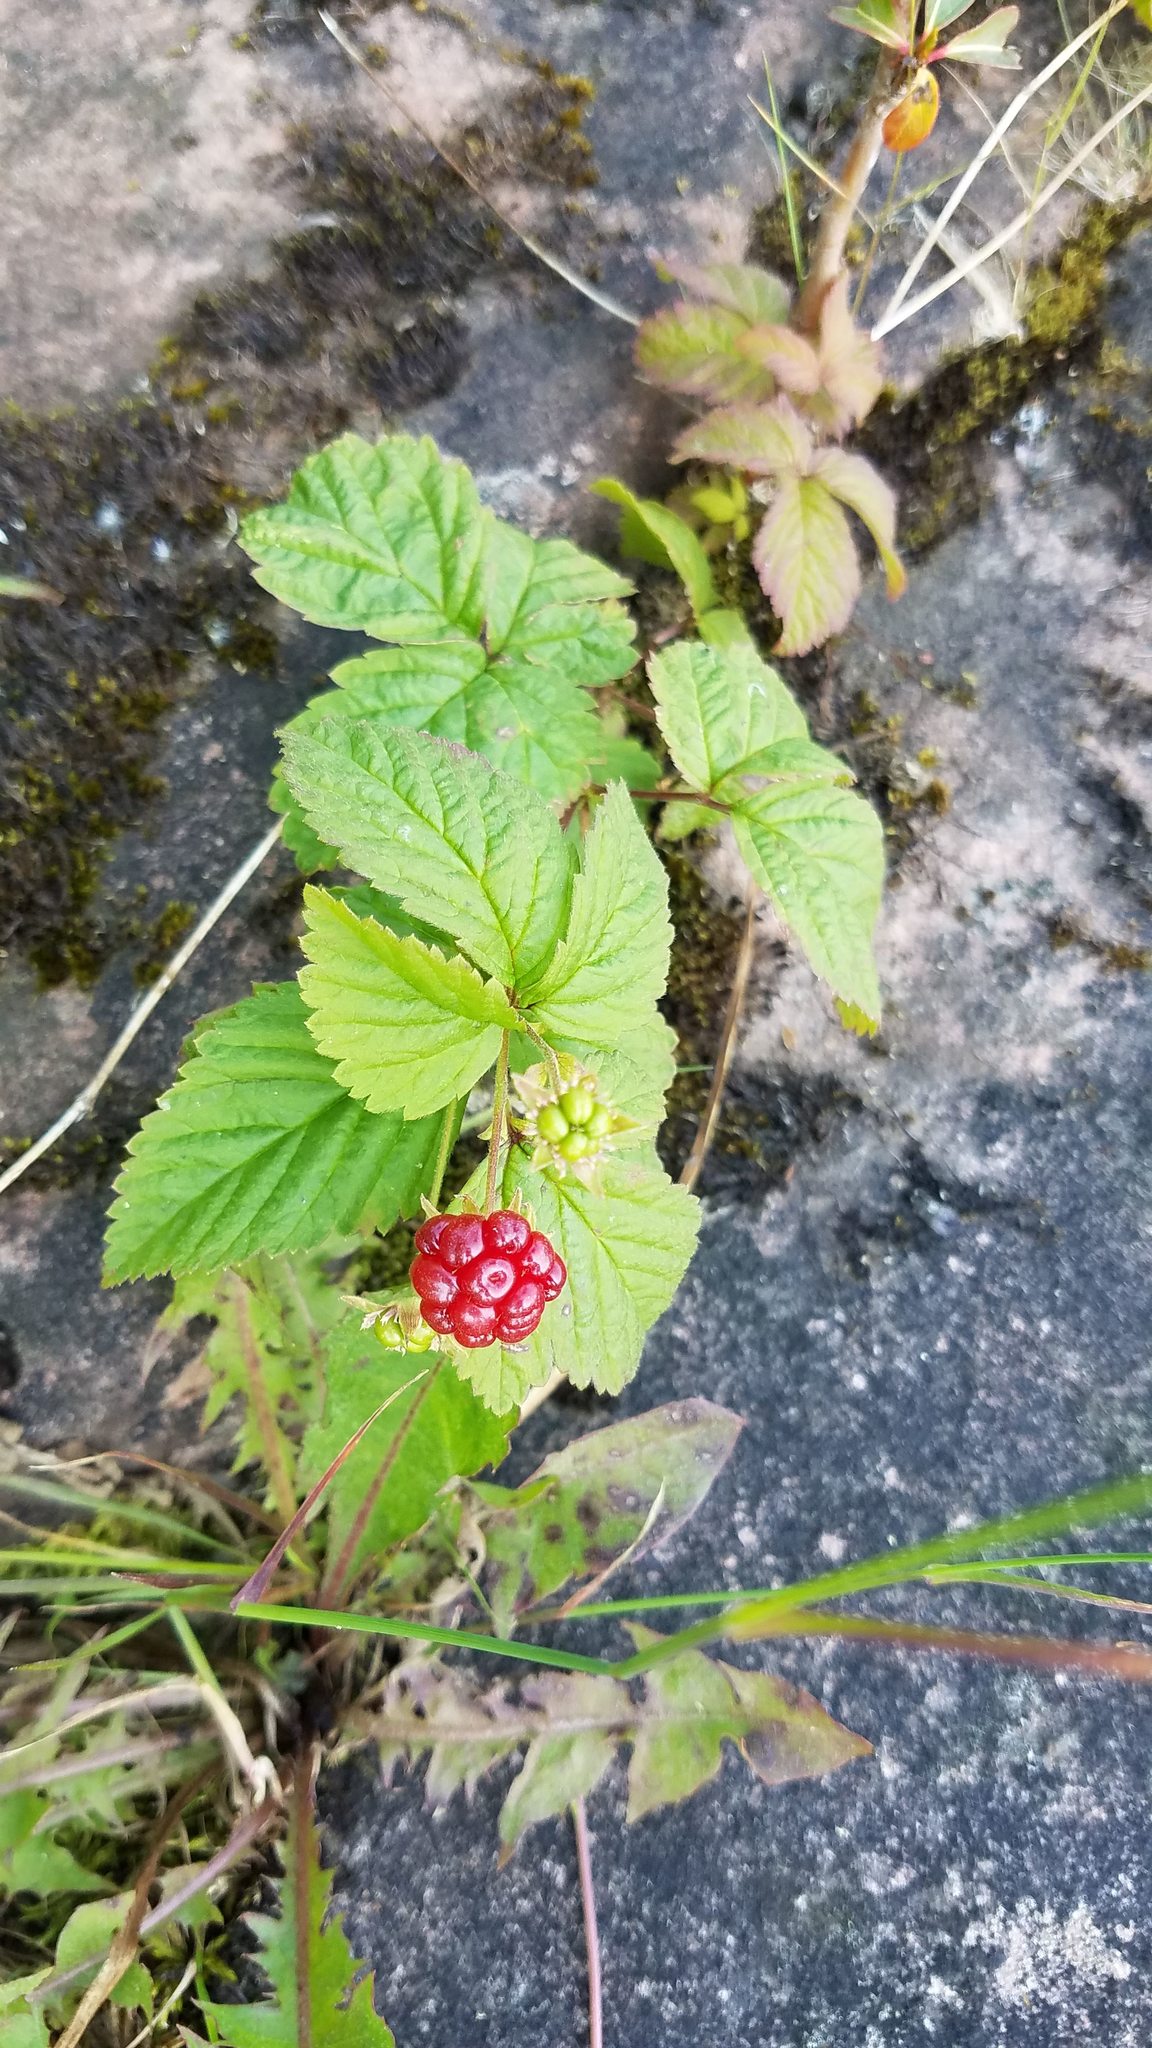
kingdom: Plantae
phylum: Tracheophyta
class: Magnoliopsida
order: Rosales
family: Rosaceae
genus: Rubus
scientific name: Rubus pubescens
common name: Dwarf raspberry
